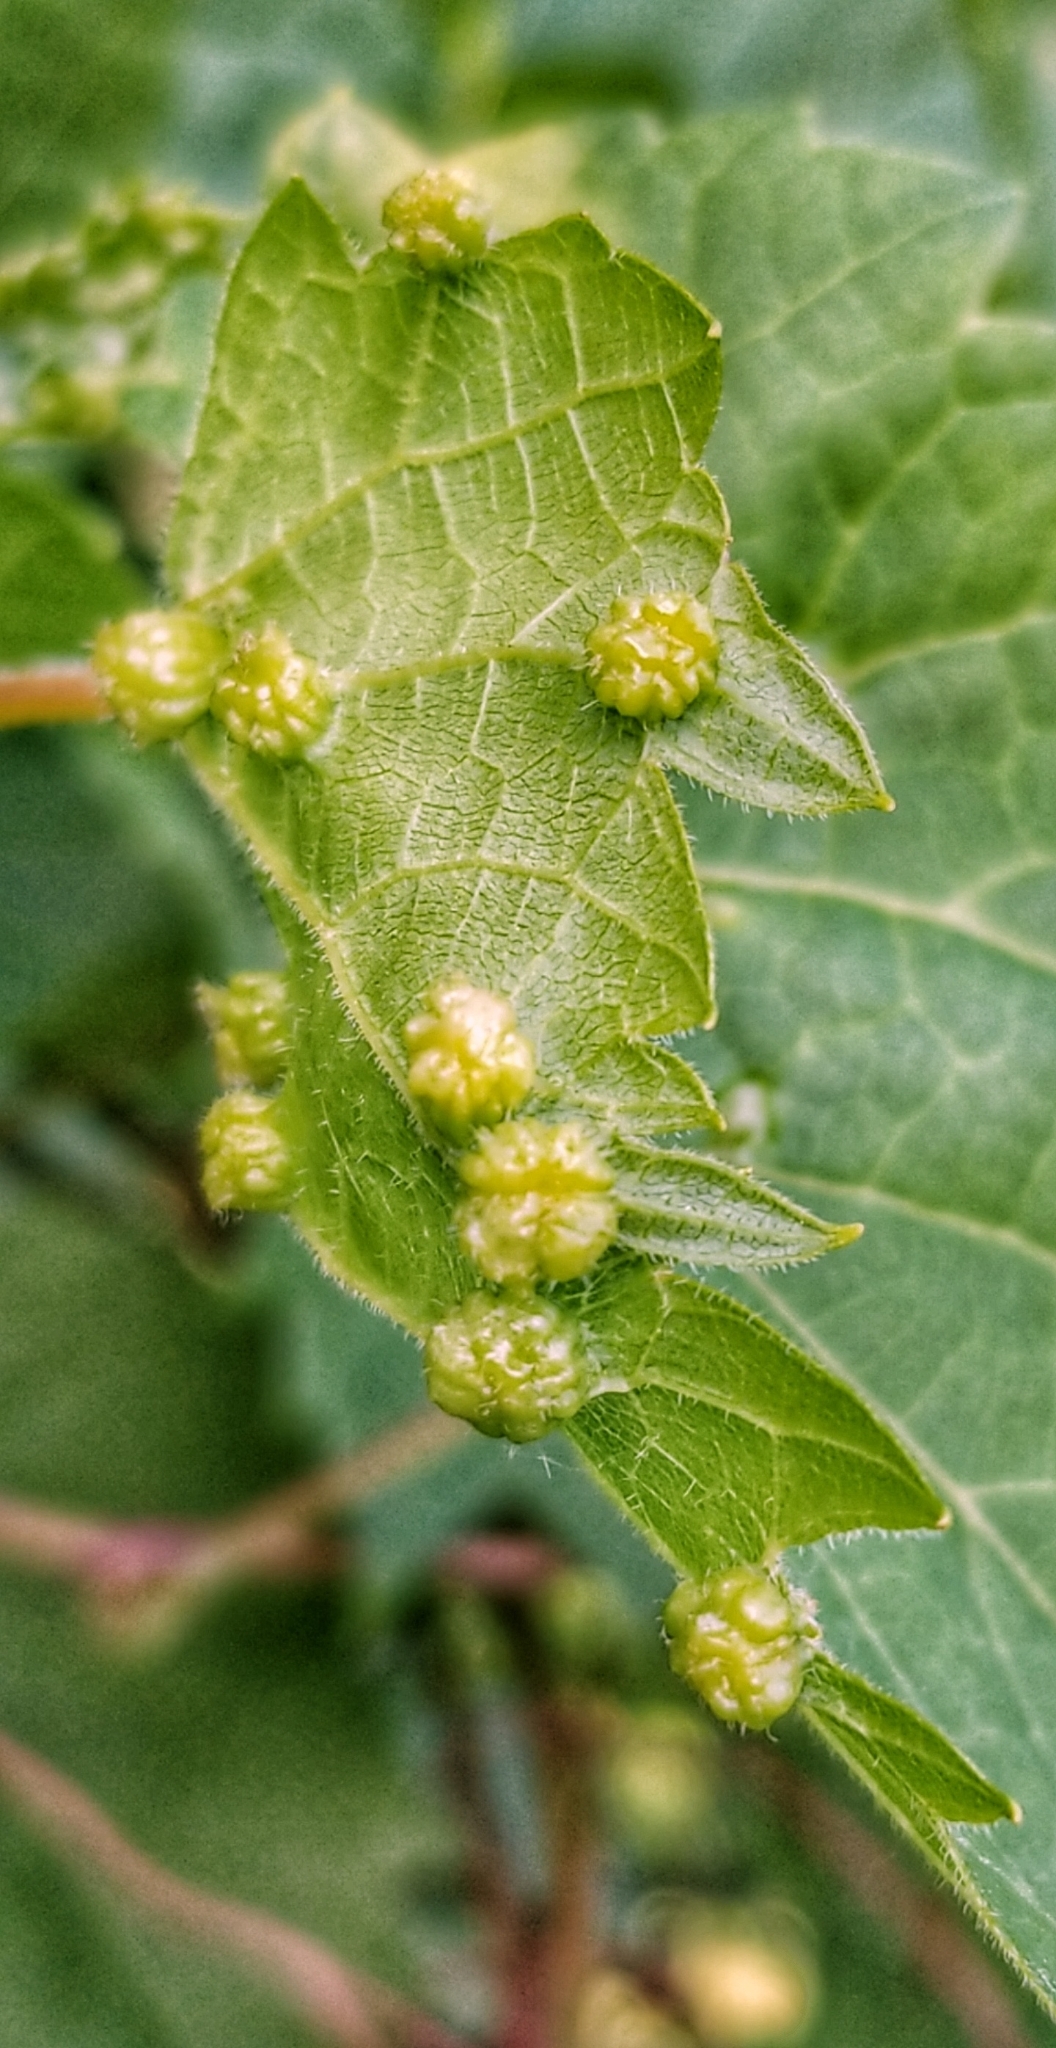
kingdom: Animalia
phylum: Arthropoda
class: Insecta
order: Hemiptera
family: Phylloxeridae
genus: Daktulosphaira
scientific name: Daktulosphaira vitifoliae
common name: Grape phylloxera
